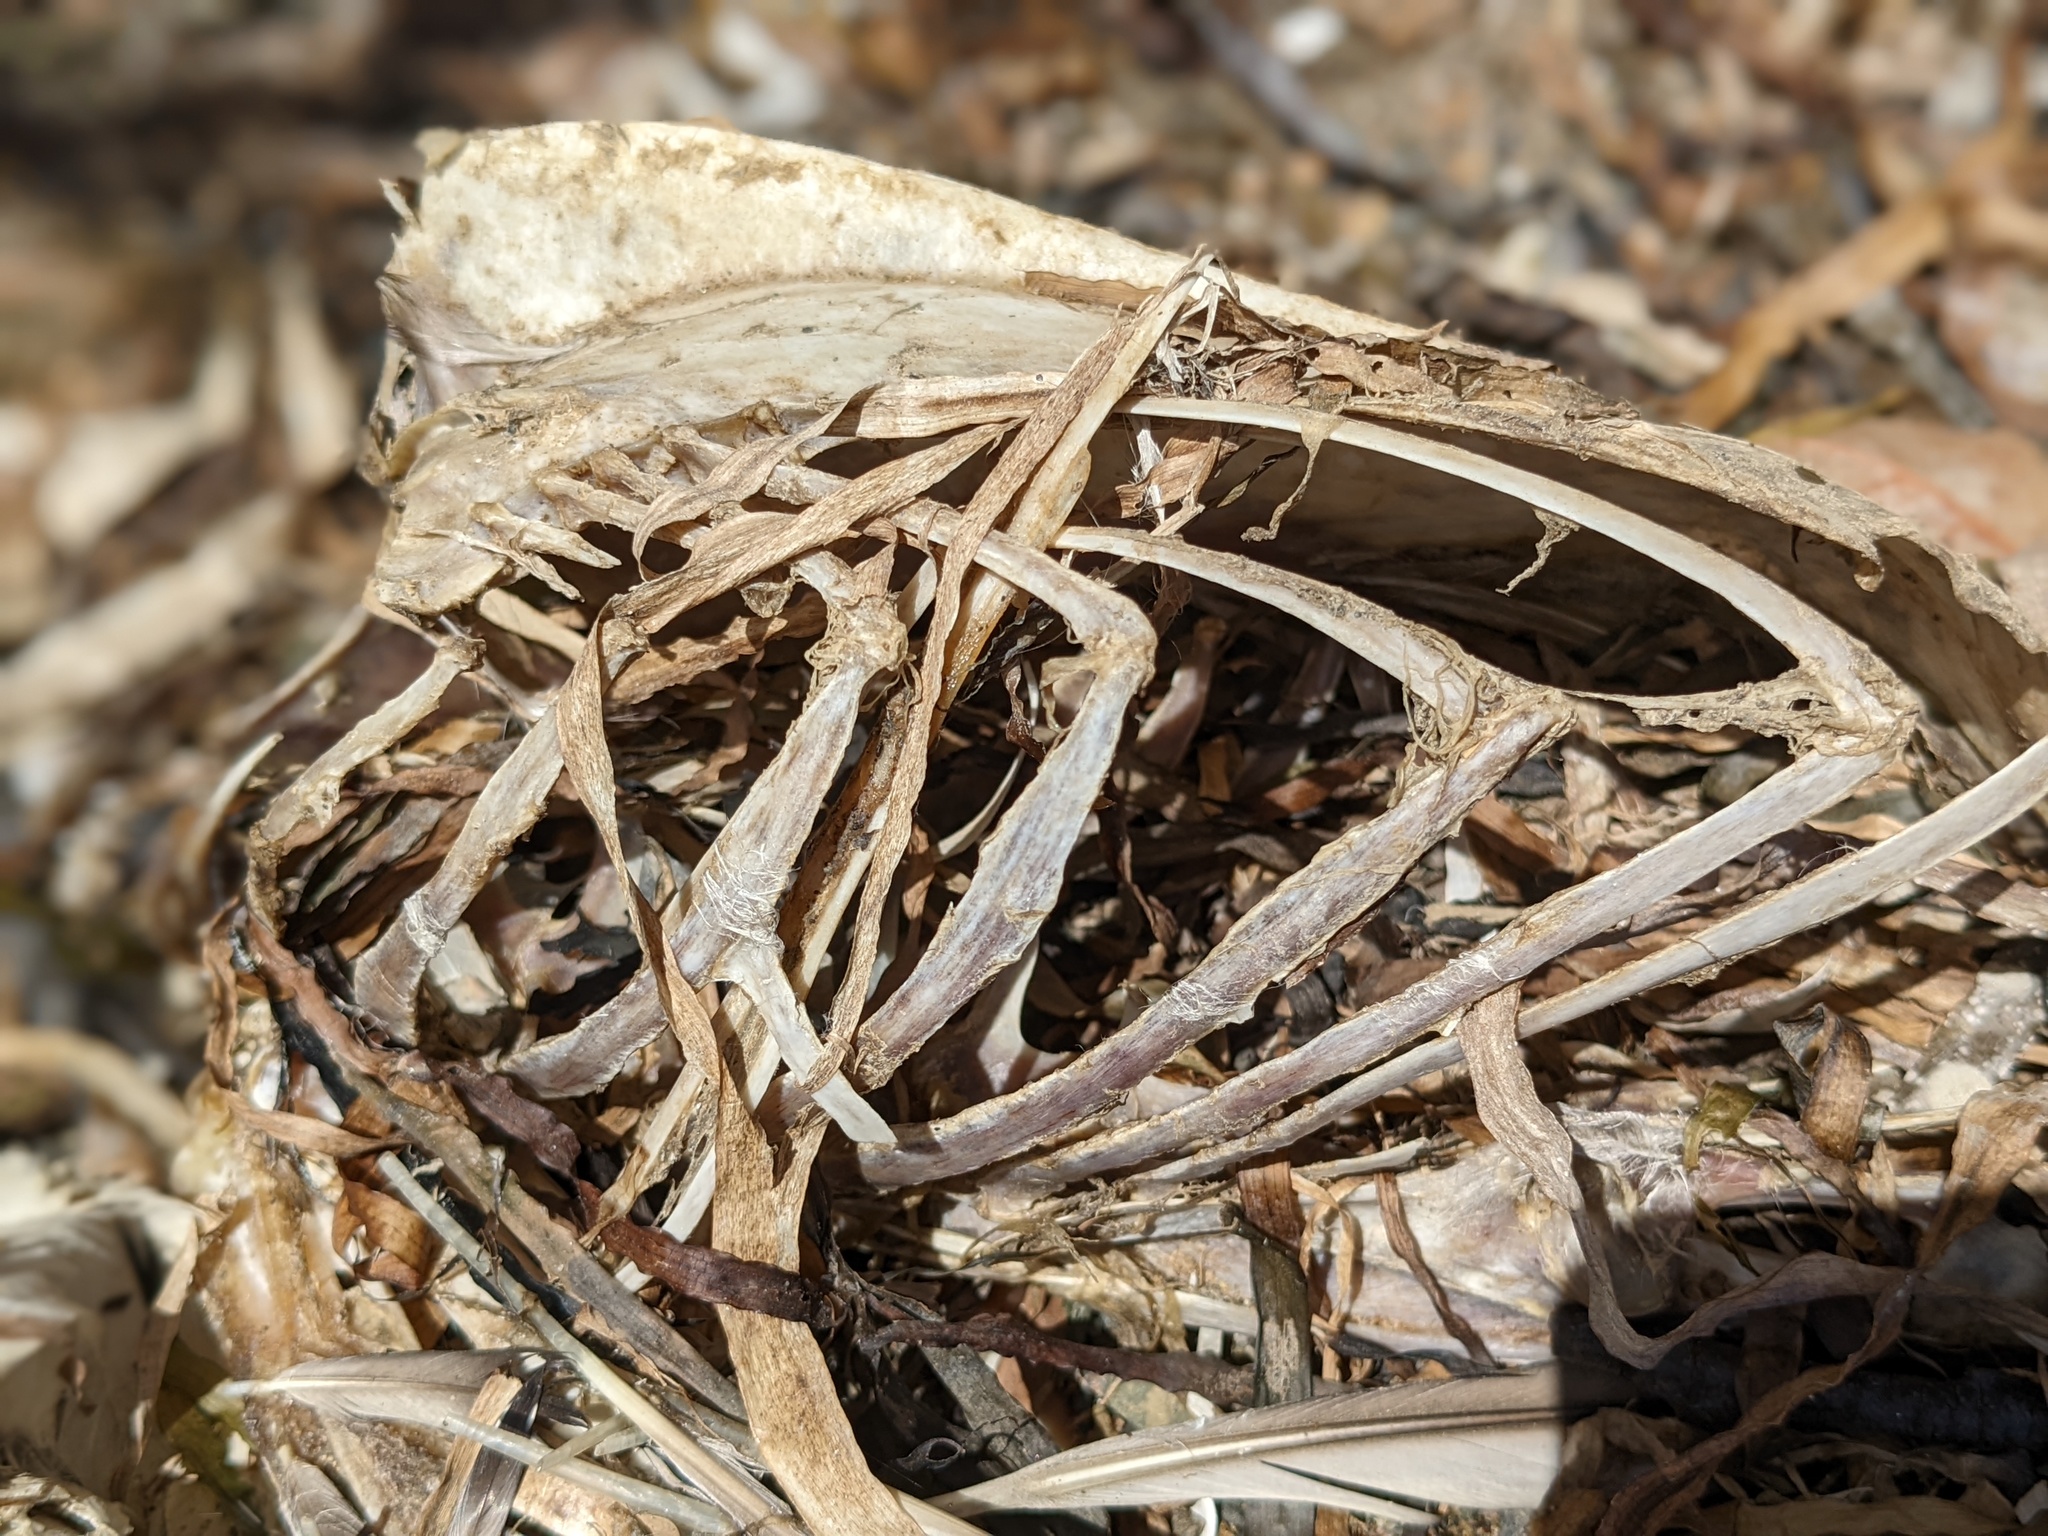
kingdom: Animalia
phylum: Chordata
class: Aves
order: Gaviiformes
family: Gaviidae
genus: Gavia
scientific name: Gavia immer
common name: Common loon
